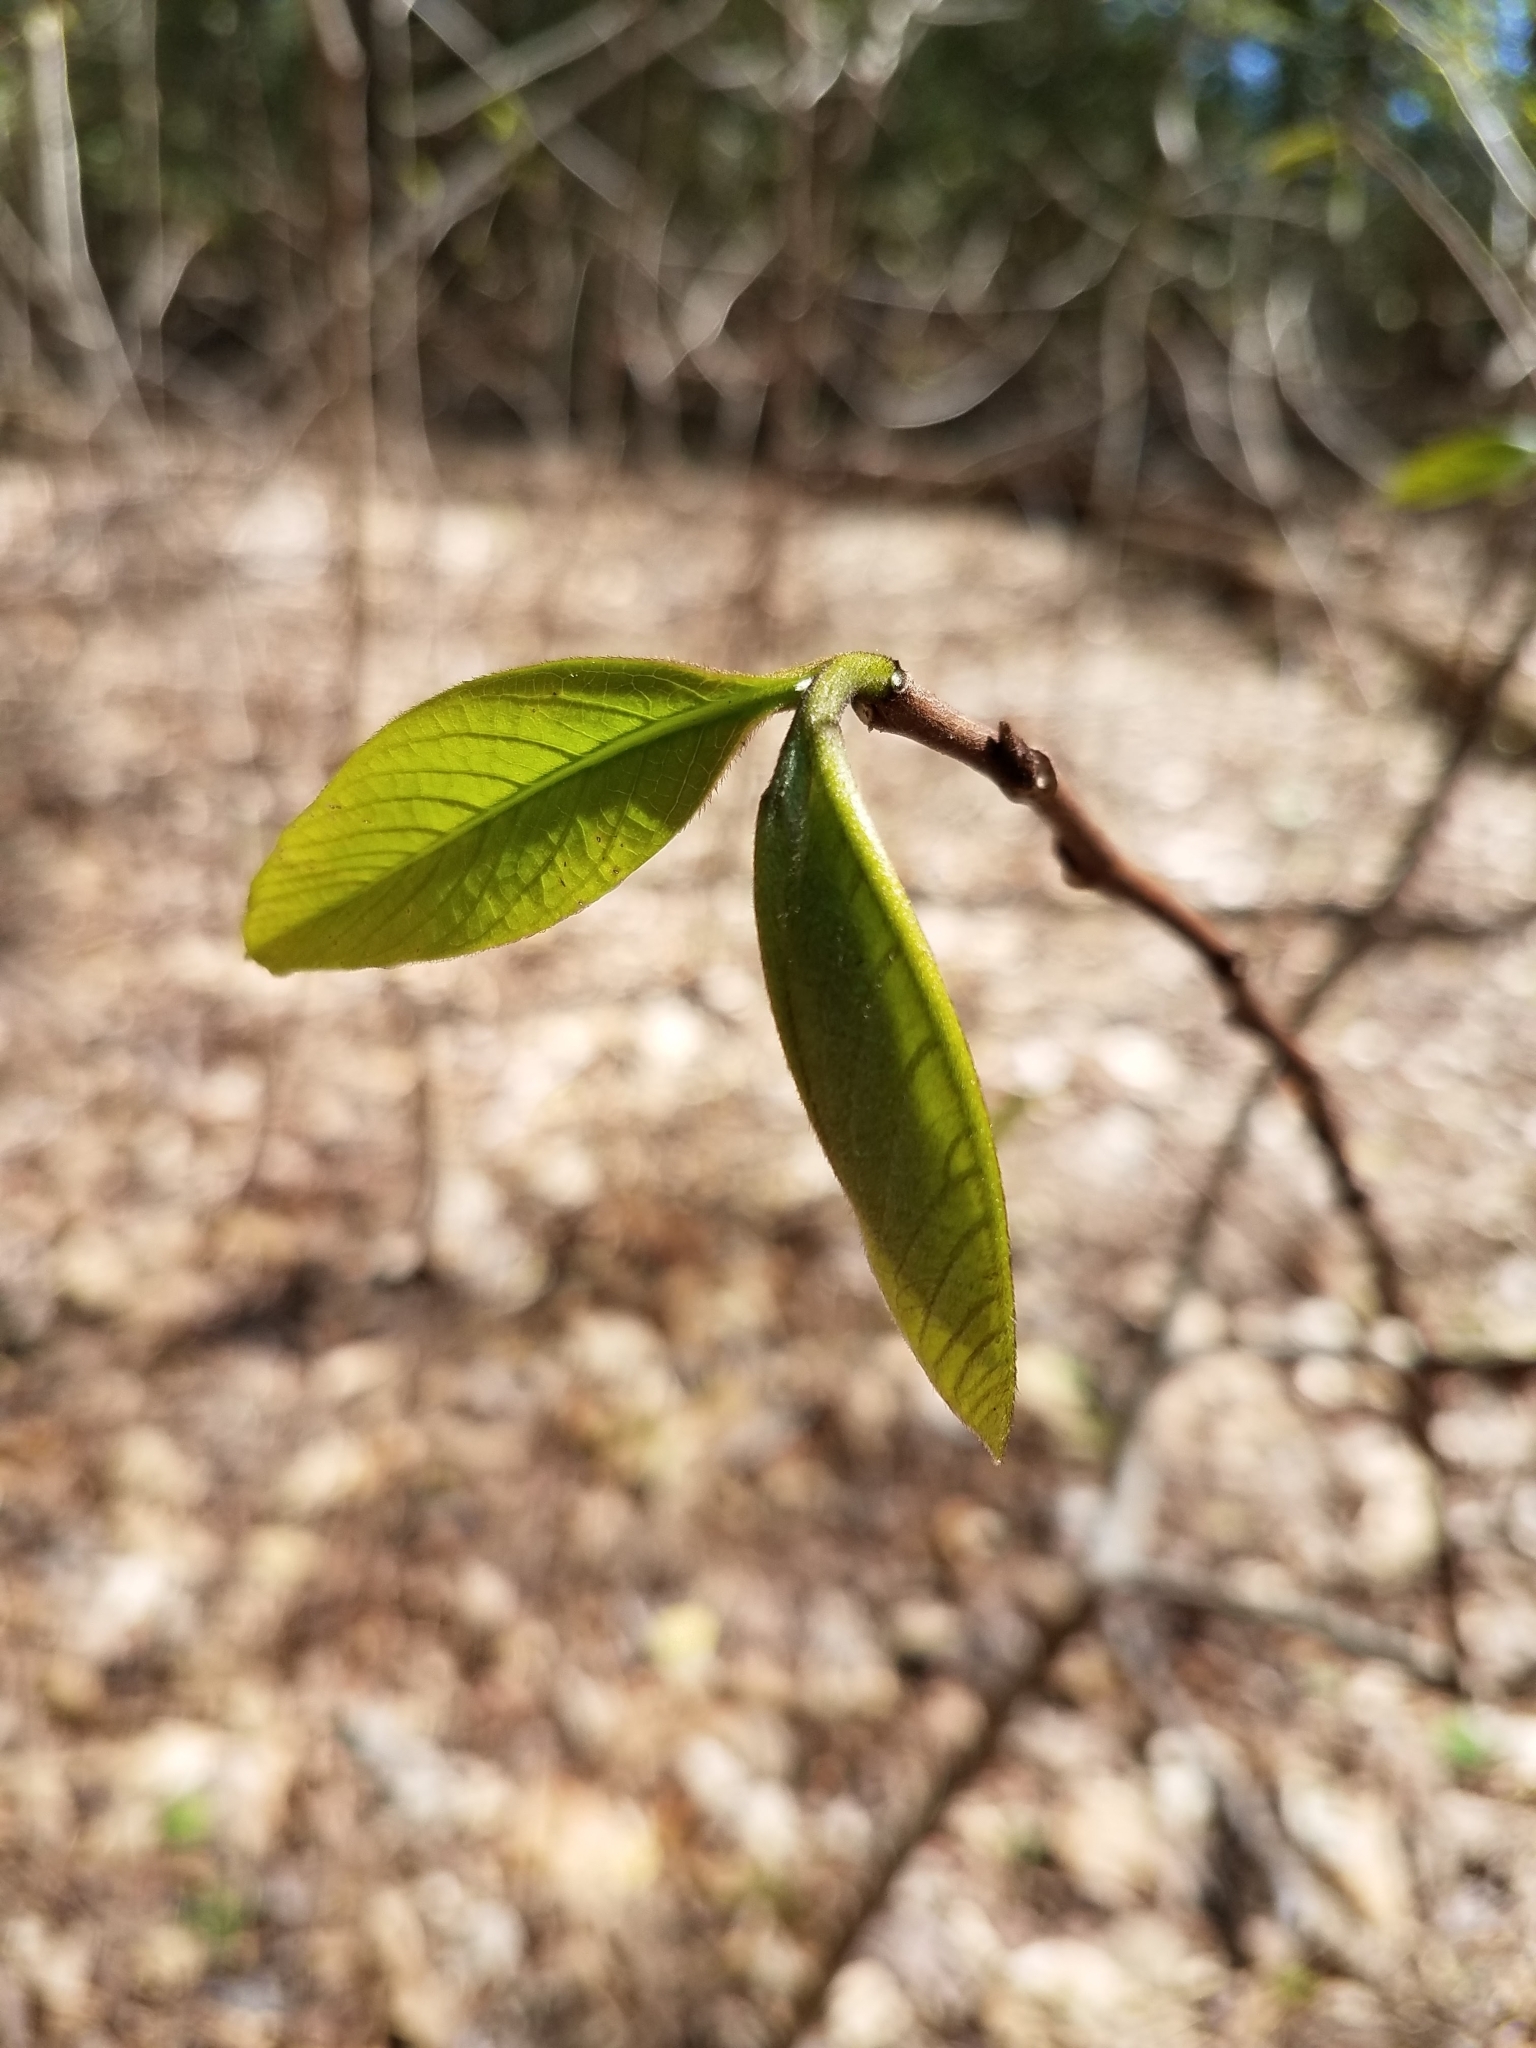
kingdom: Plantae
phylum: Tracheophyta
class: Magnoliopsida
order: Magnoliales
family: Annonaceae
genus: Asimina
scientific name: Asimina triloba
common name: Dog-banana
